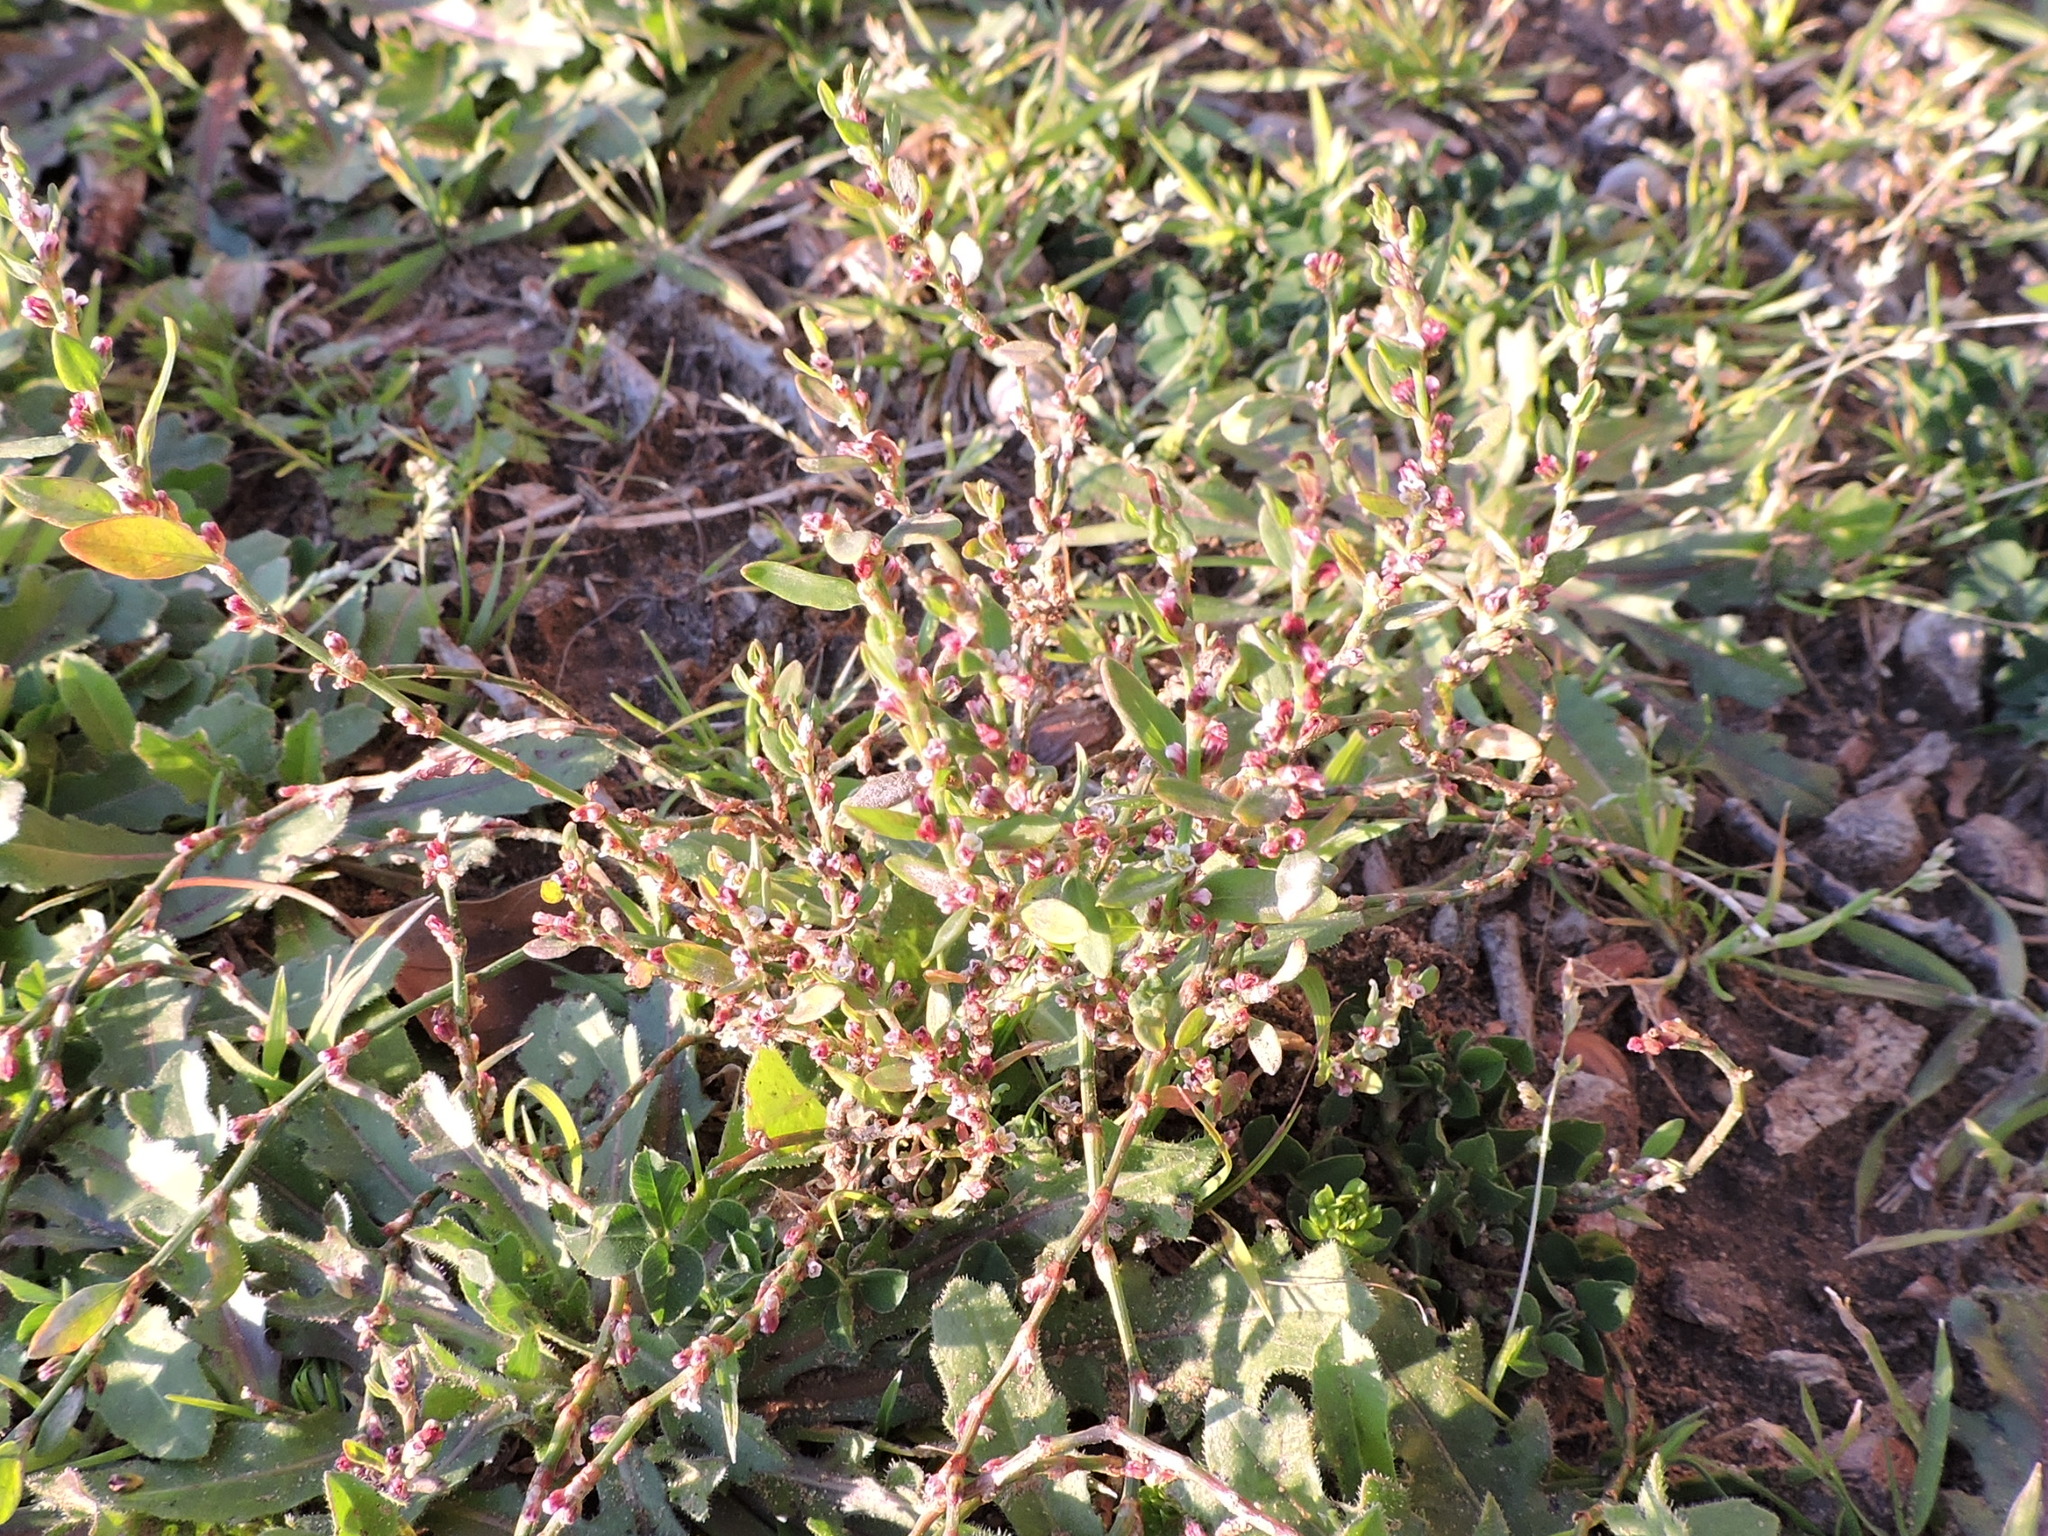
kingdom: Plantae
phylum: Tracheophyta
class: Magnoliopsida
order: Caryophyllales
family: Polygonaceae
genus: Polygonum
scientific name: Polygonum aviculare
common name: Prostrate knotweed
